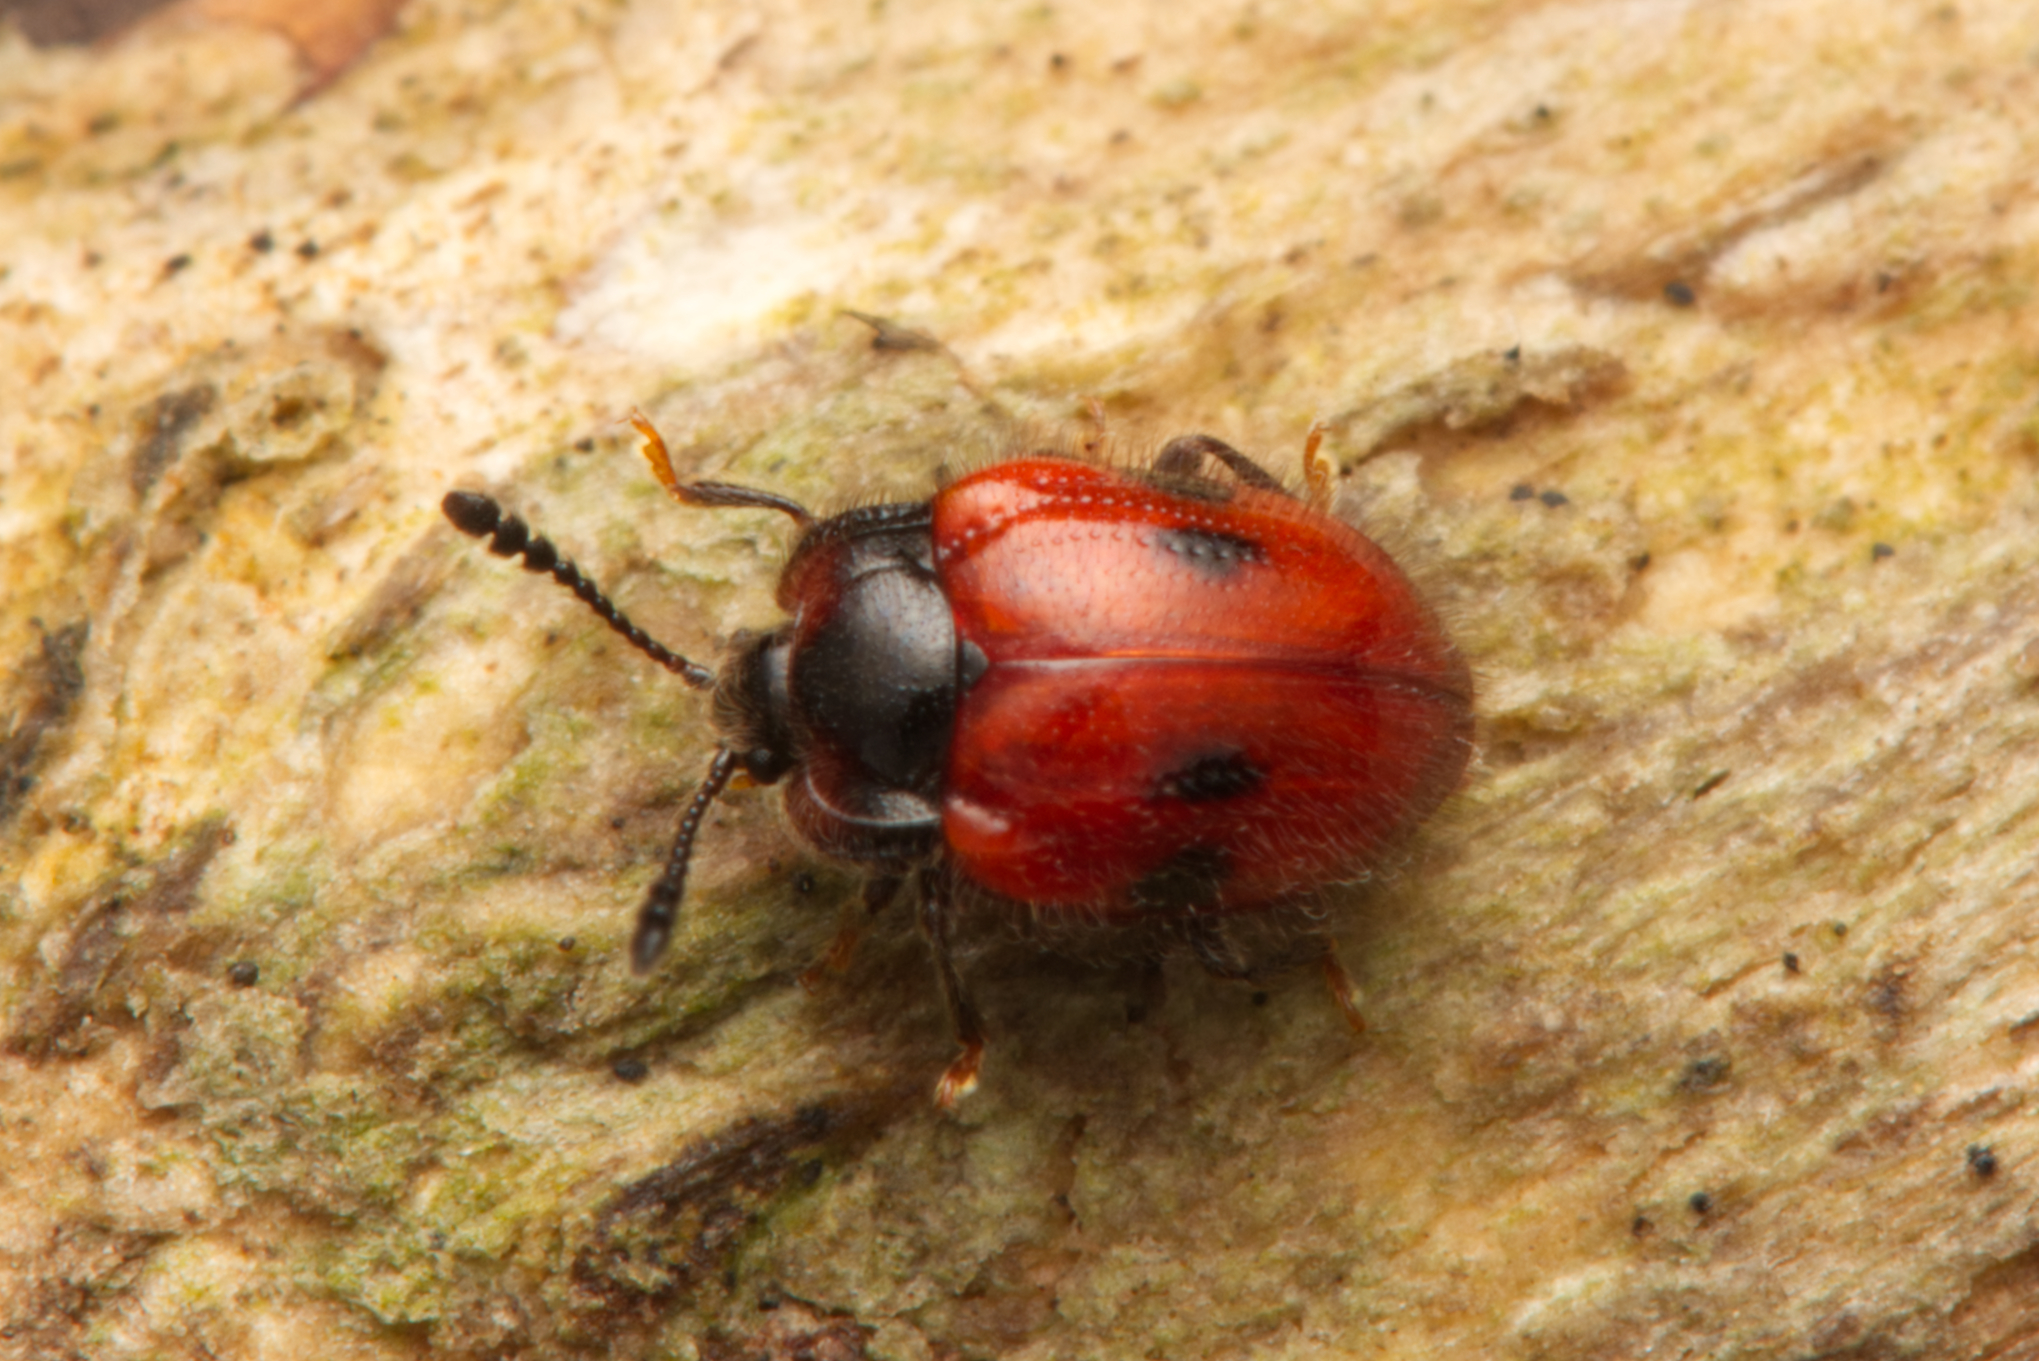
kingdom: Animalia
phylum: Arthropoda
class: Insecta
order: Coleoptera
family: Endomychidae
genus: Stenotarsus
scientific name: Stenotarsus
